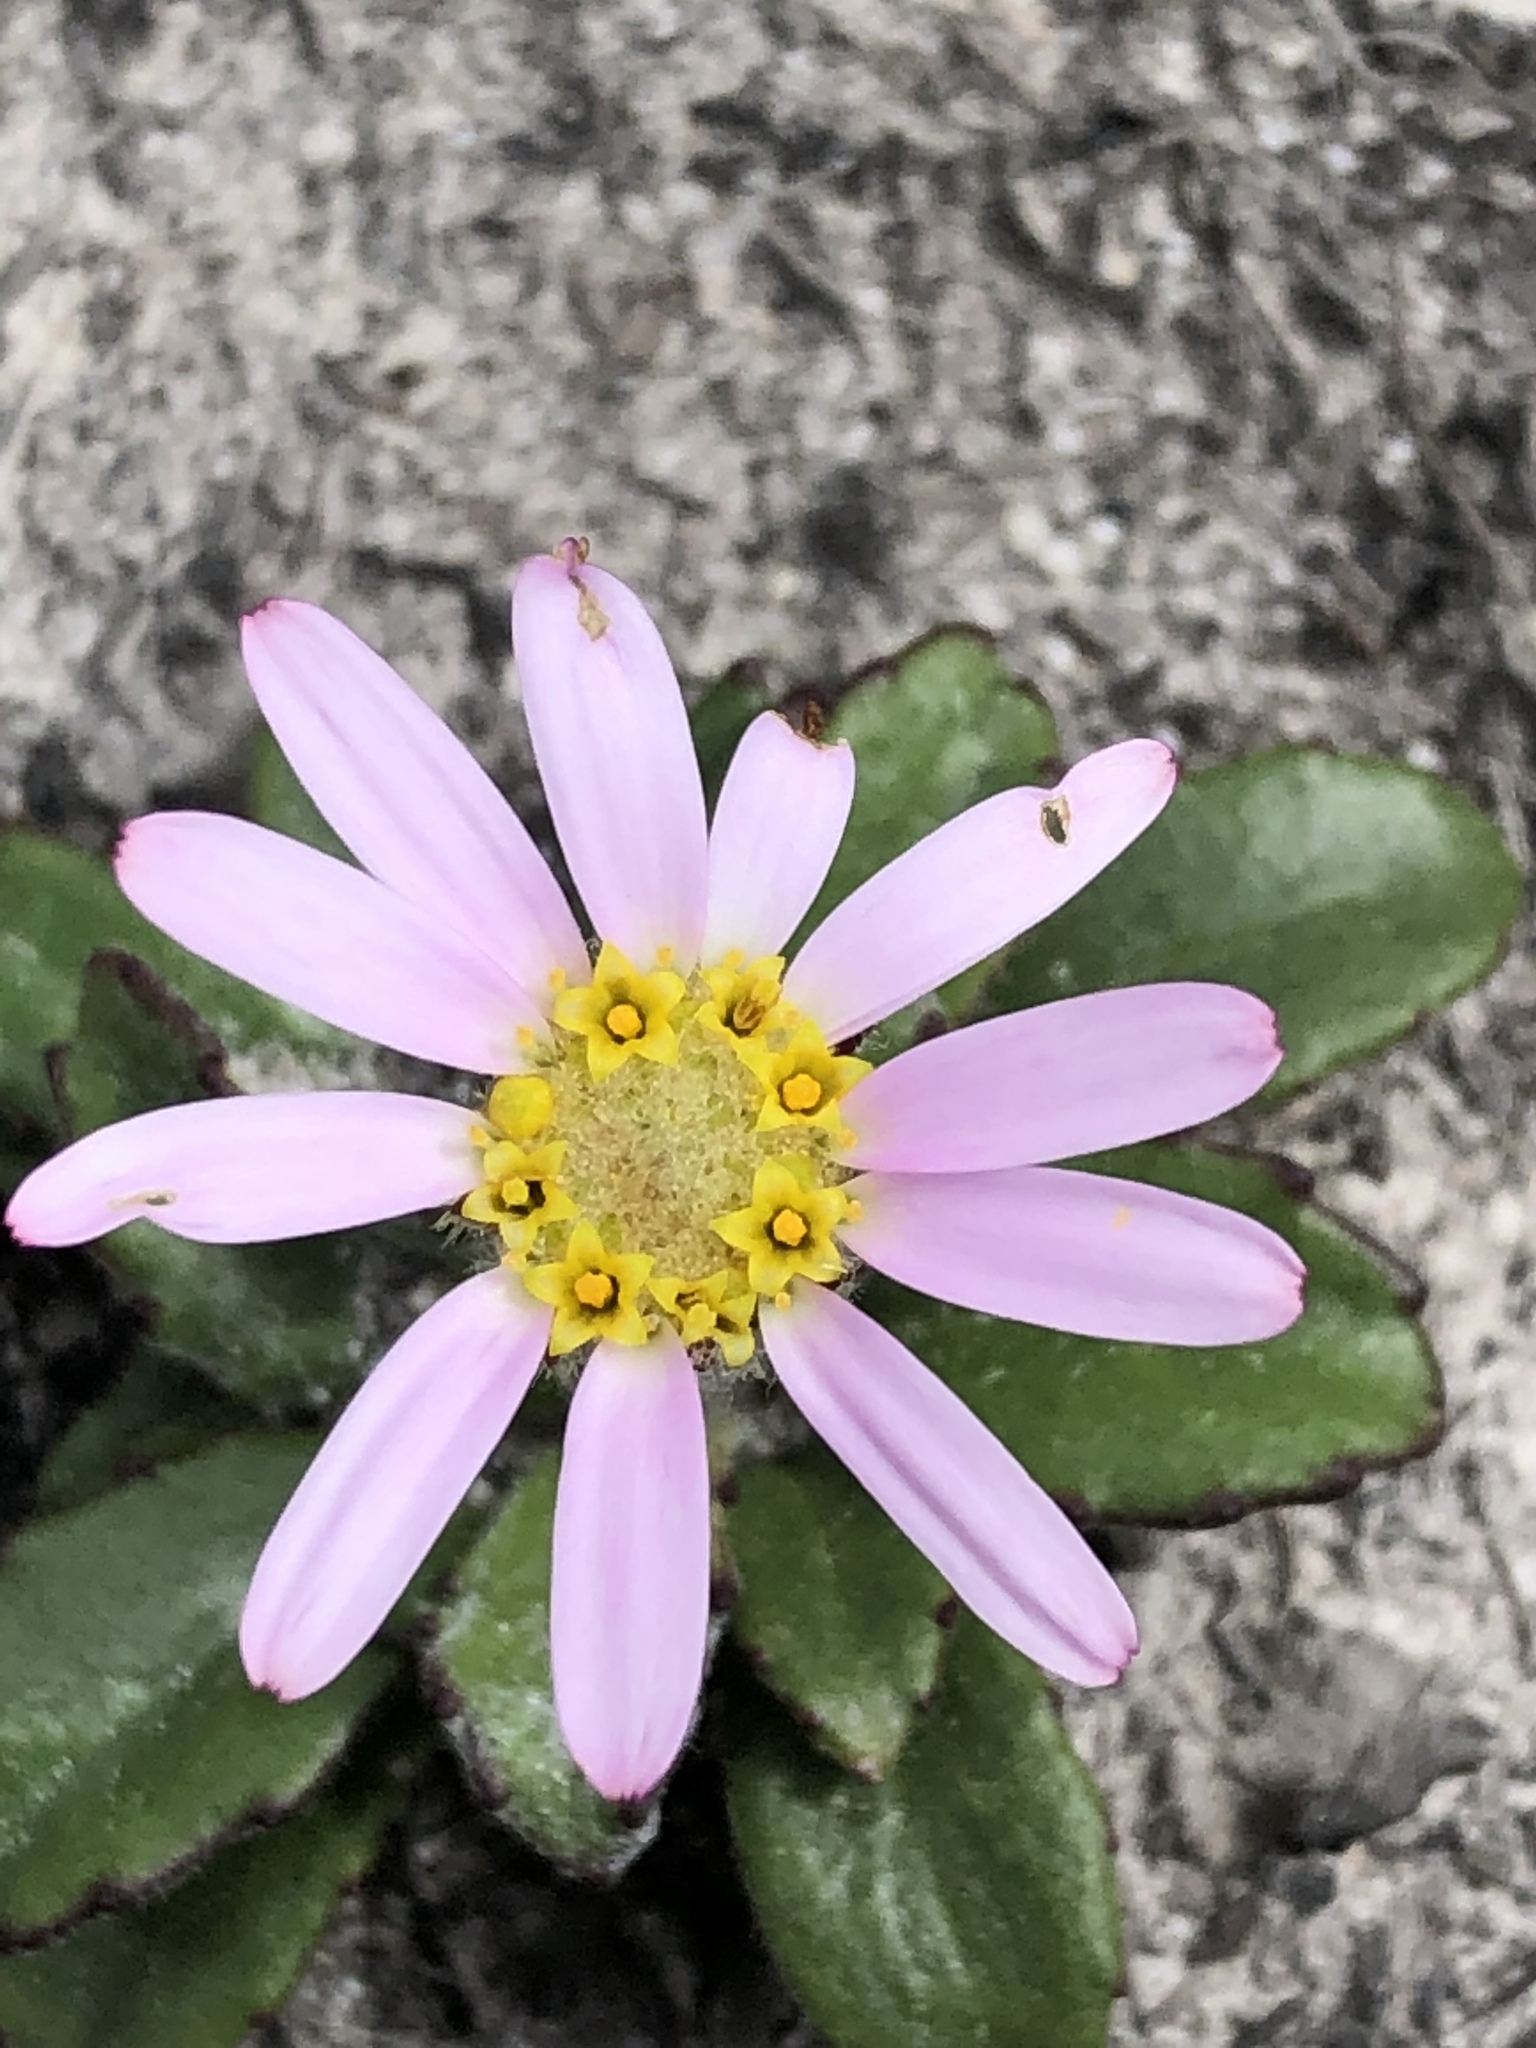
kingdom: Plantae
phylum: Tracheophyta
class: Magnoliopsida
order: Asterales
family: Asteraceae
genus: Zyrphelis
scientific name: Zyrphelis crenata
